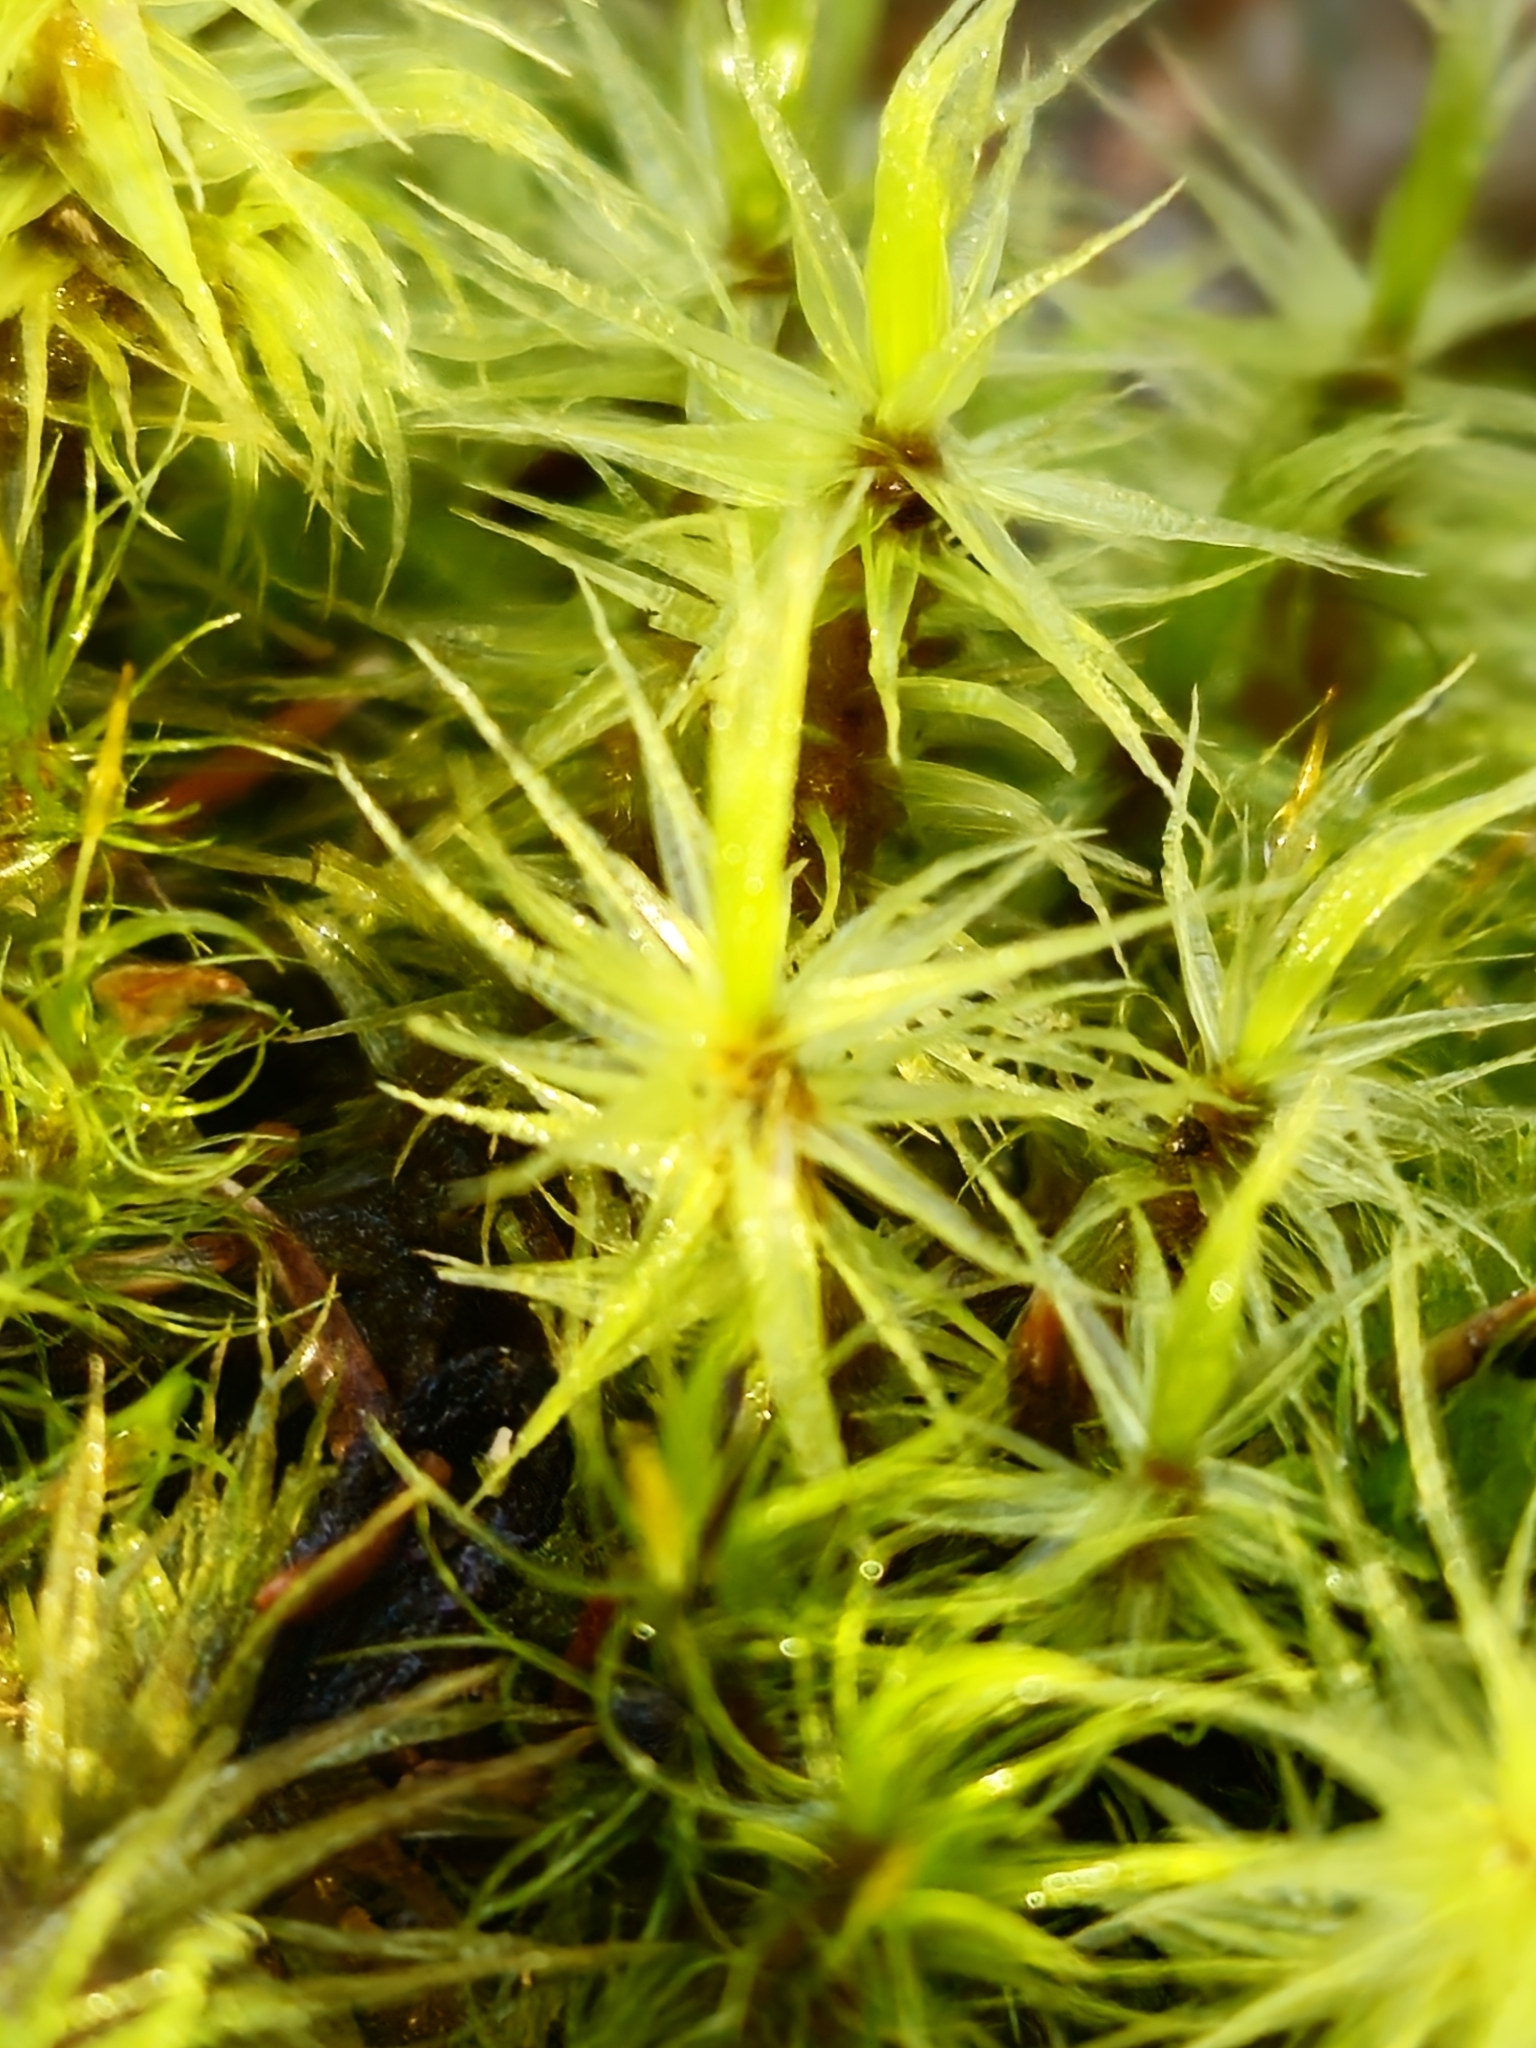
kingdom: Plantae
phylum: Bryophyta
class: Bryopsida
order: Dicranales
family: Dicranaceae
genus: Dicranum
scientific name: Dicranum polysetum
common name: Rugose fork-moss
